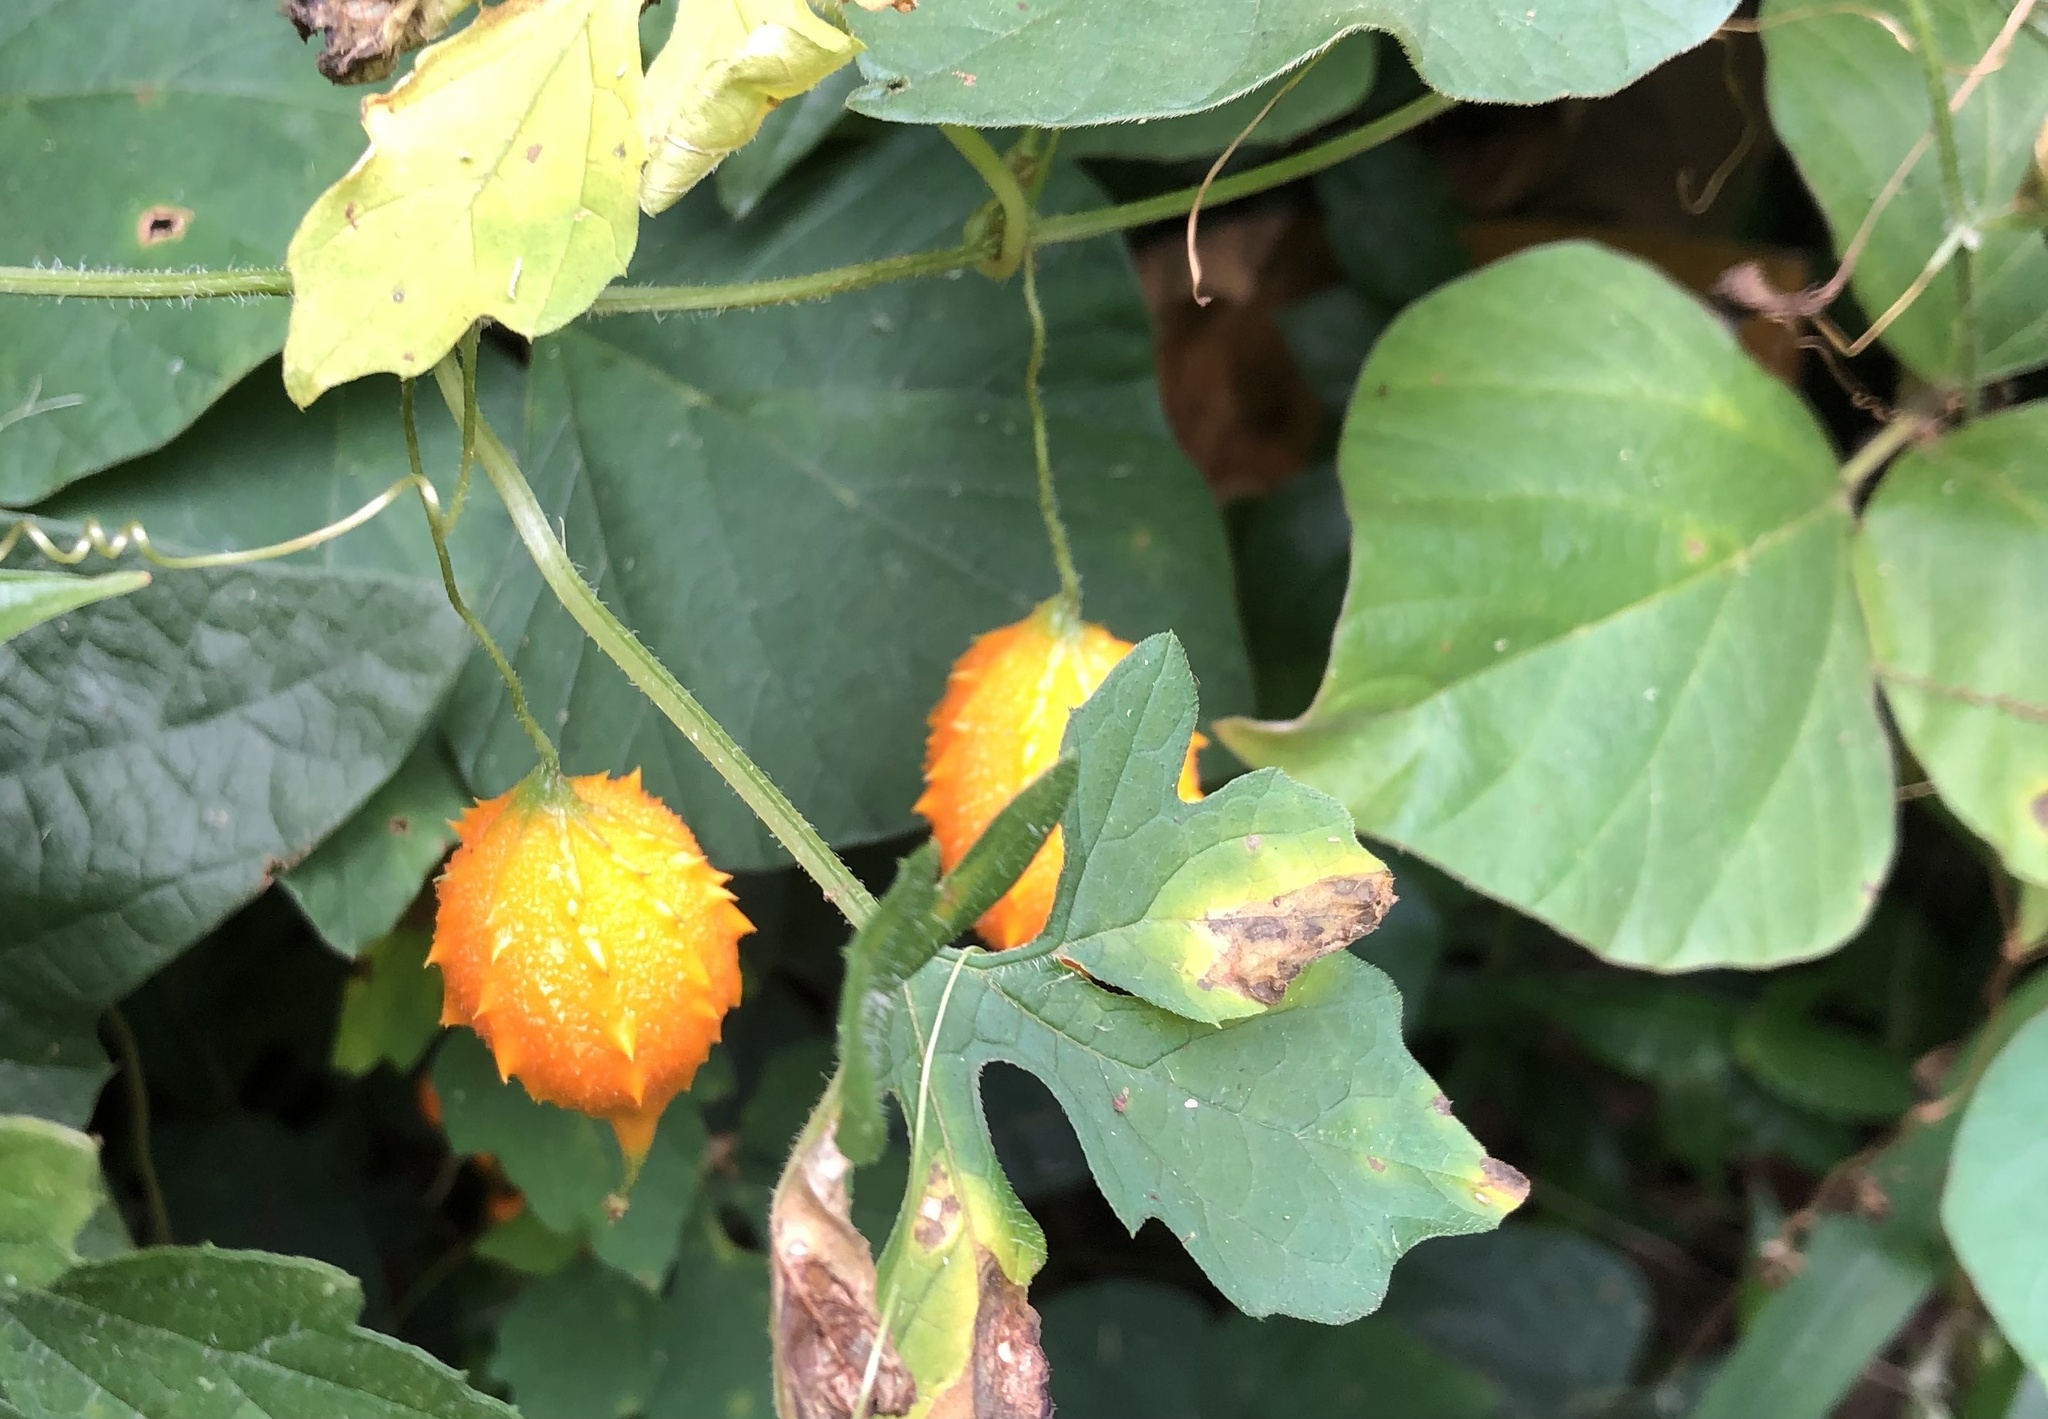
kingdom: Plantae
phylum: Tracheophyta
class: Magnoliopsida
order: Cucurbitales
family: Cucurbitaceae
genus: Momordica
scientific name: Momordica charantia
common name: Balsampear
